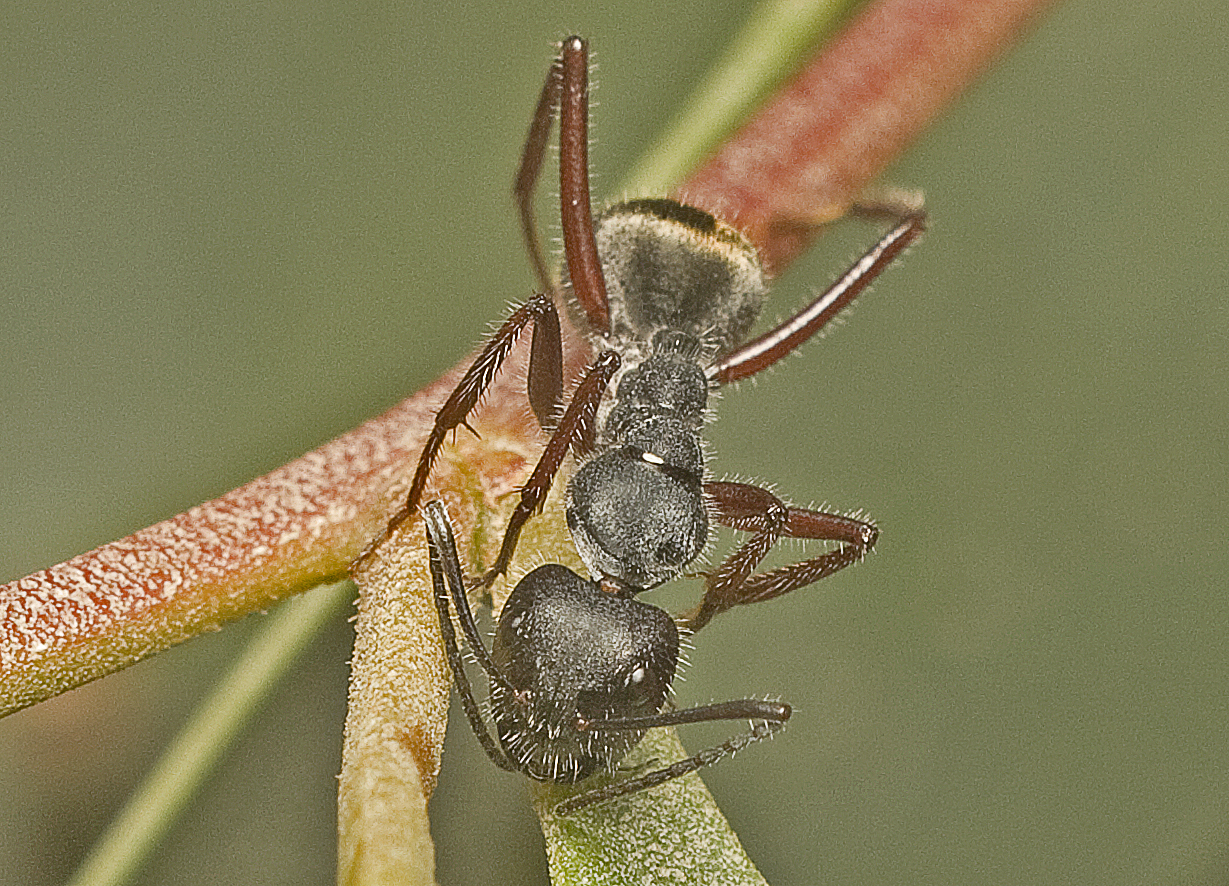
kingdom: Animalia
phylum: Arthropoda
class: Insecta
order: Hymenoptera
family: Formicidae
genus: Camponotus
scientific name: Camponotus suffusus
